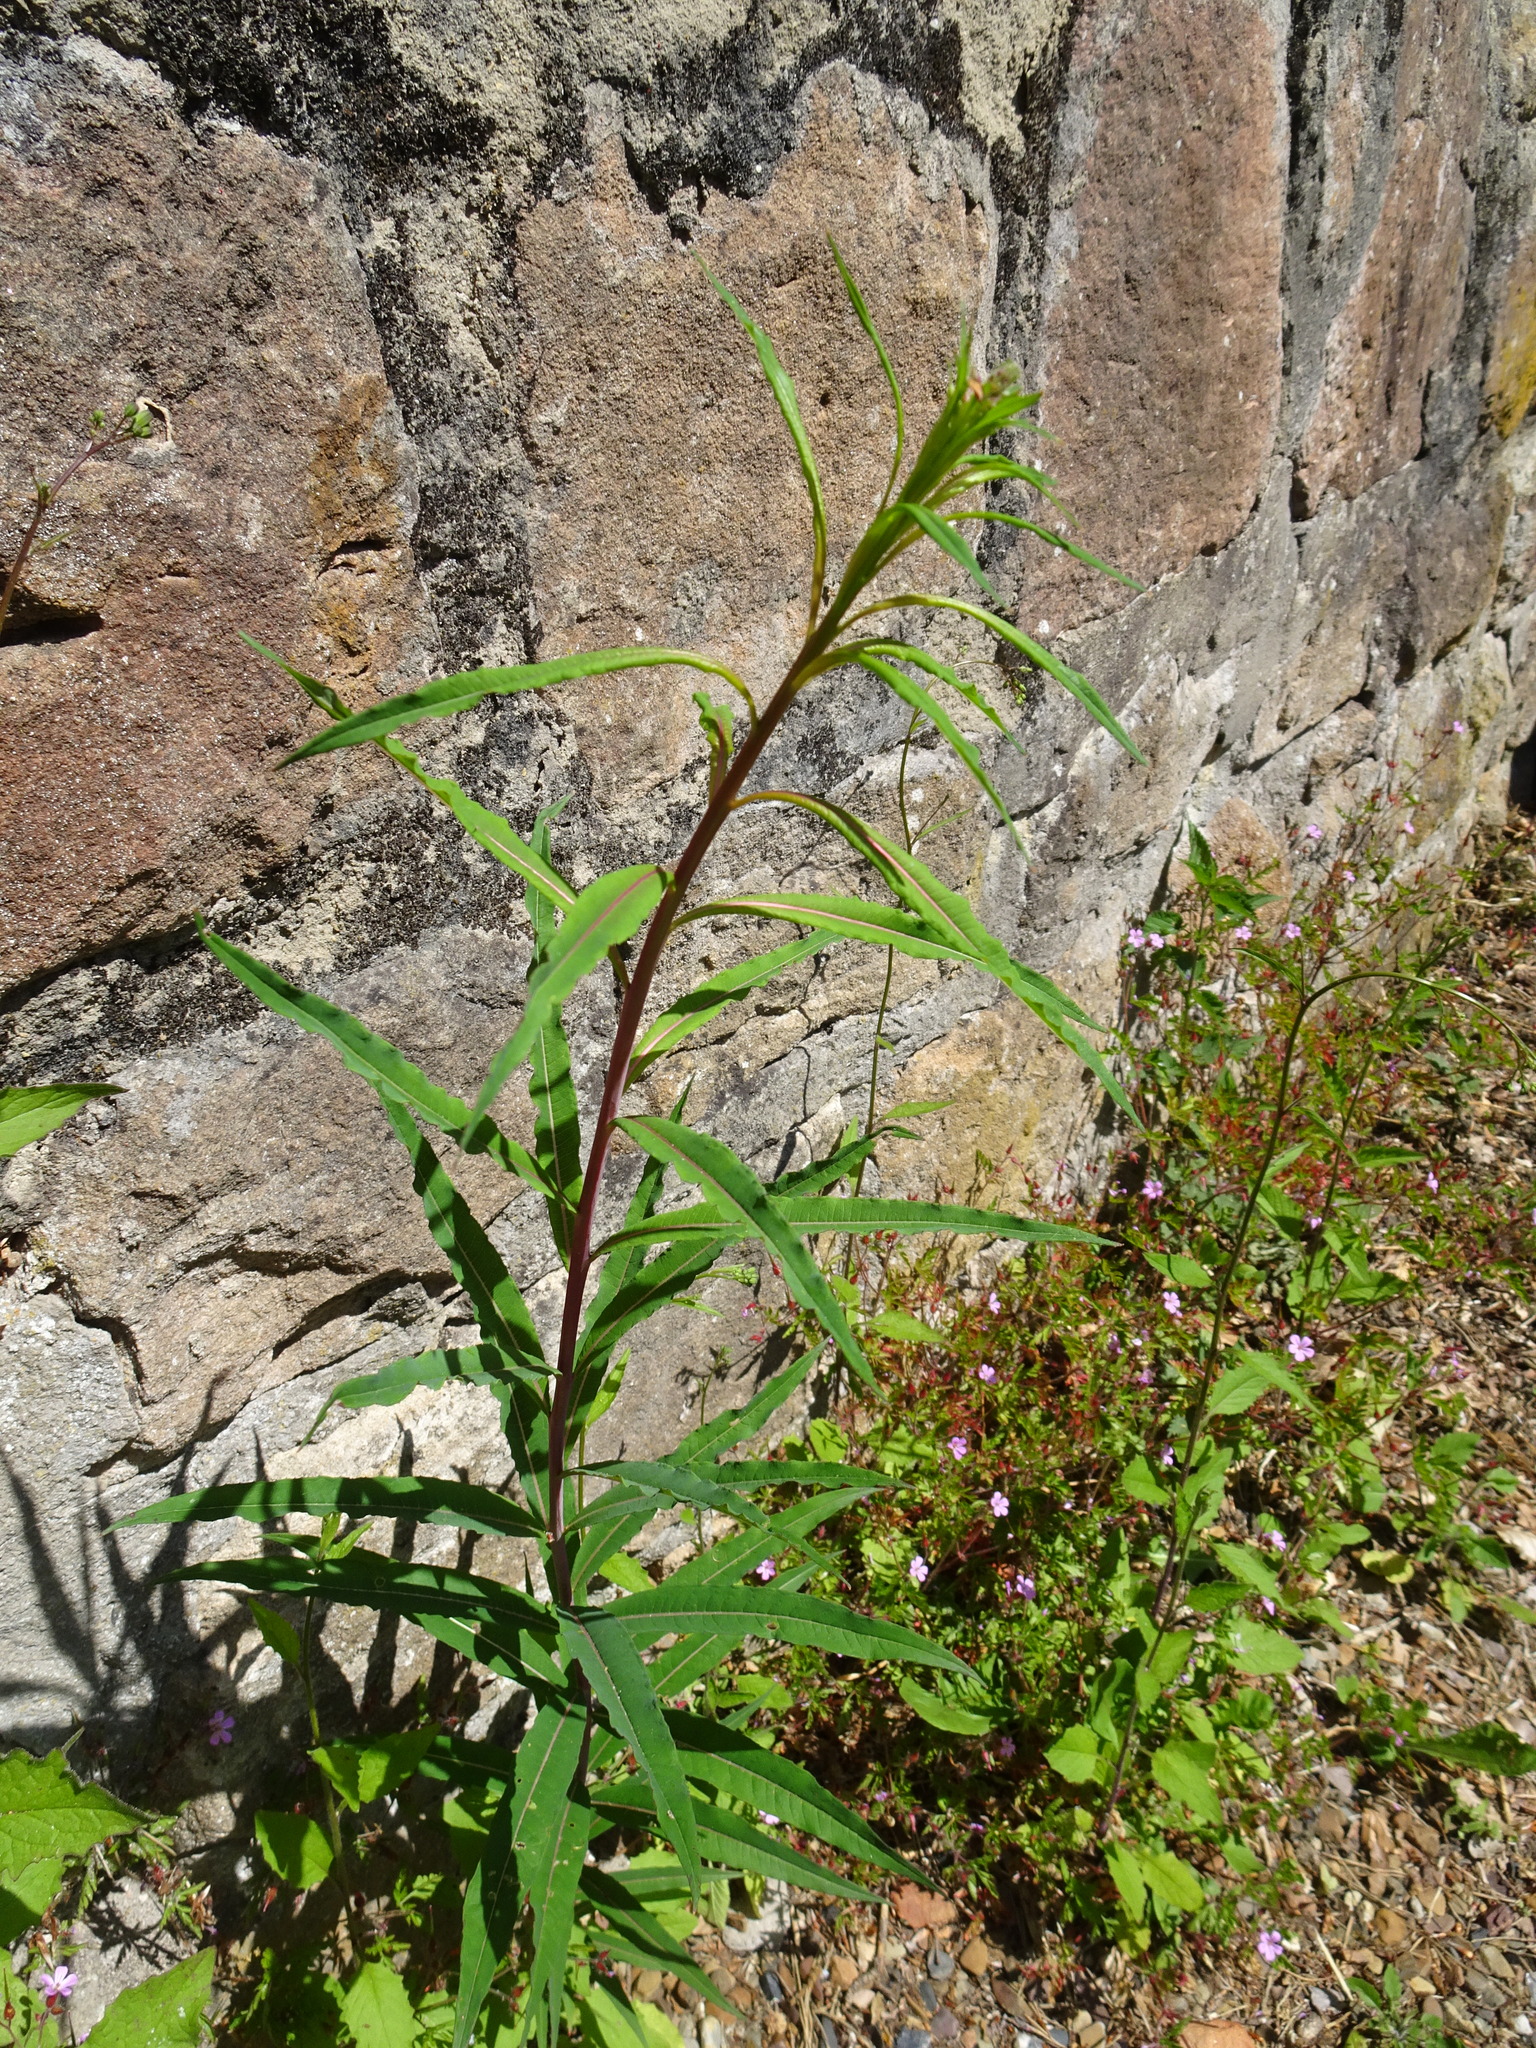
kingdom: Plantae
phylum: Tracheophyta
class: Magnoliopsida
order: Myrtales
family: Onagraceae
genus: Chamaenerion
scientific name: Chamaenerion angustifolium
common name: Fireweed
